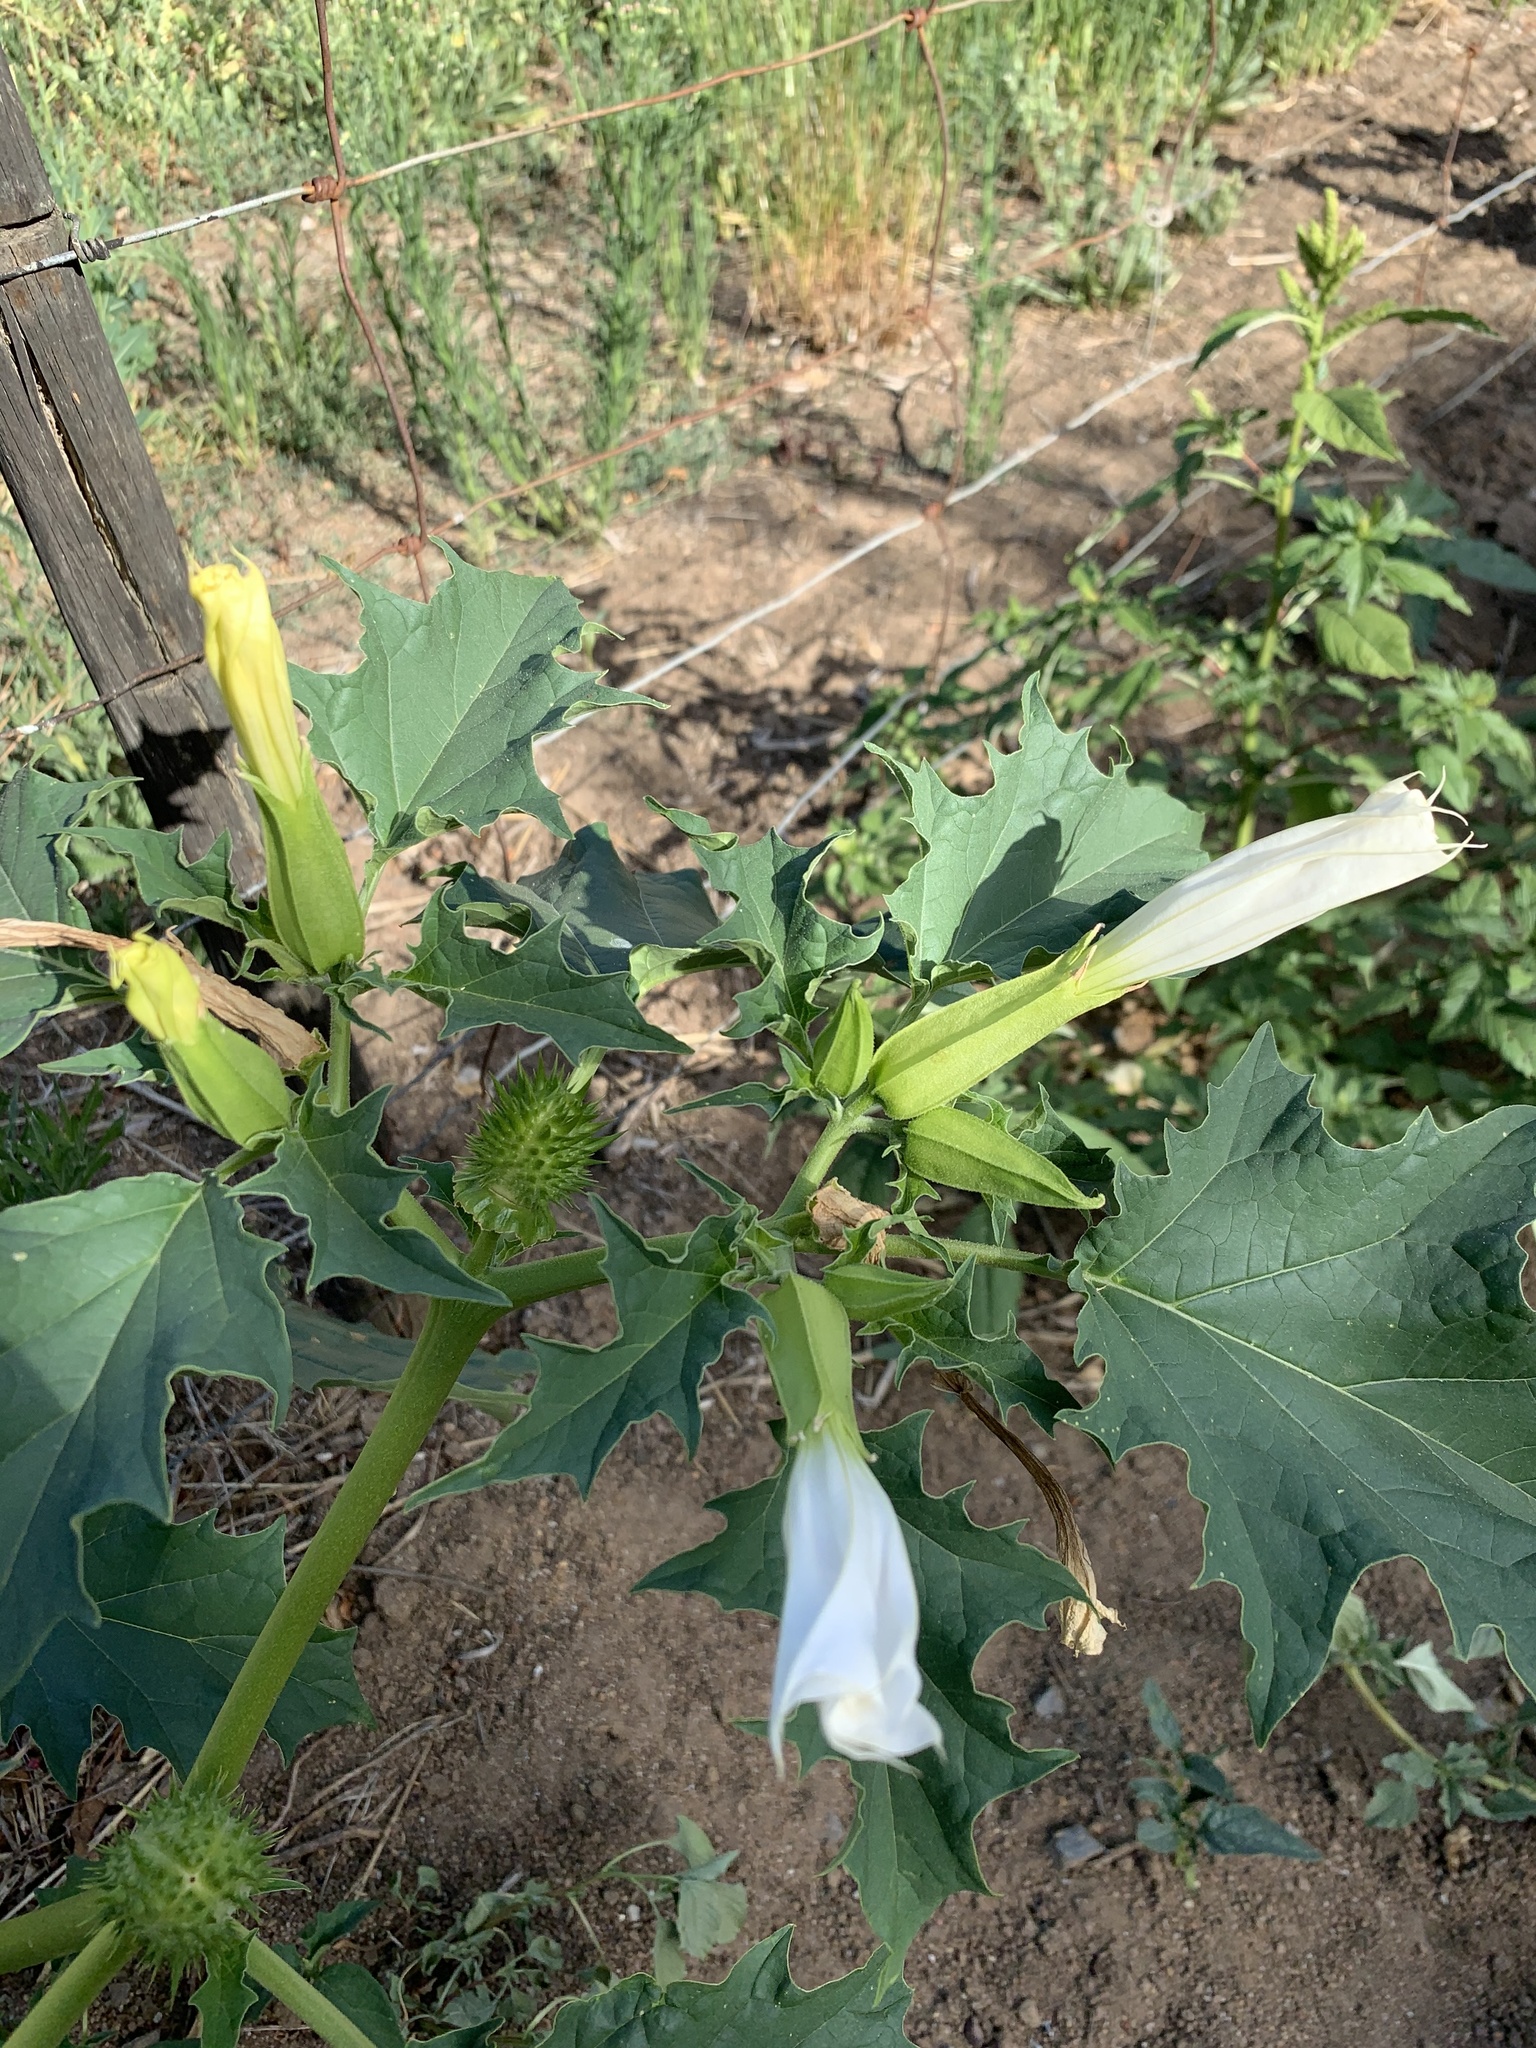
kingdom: Plantae
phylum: Tracheophyta
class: Magnoliopsida
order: Solanales
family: Solanaceae
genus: Datura
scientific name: Datura stramonium
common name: Thorn-apple
